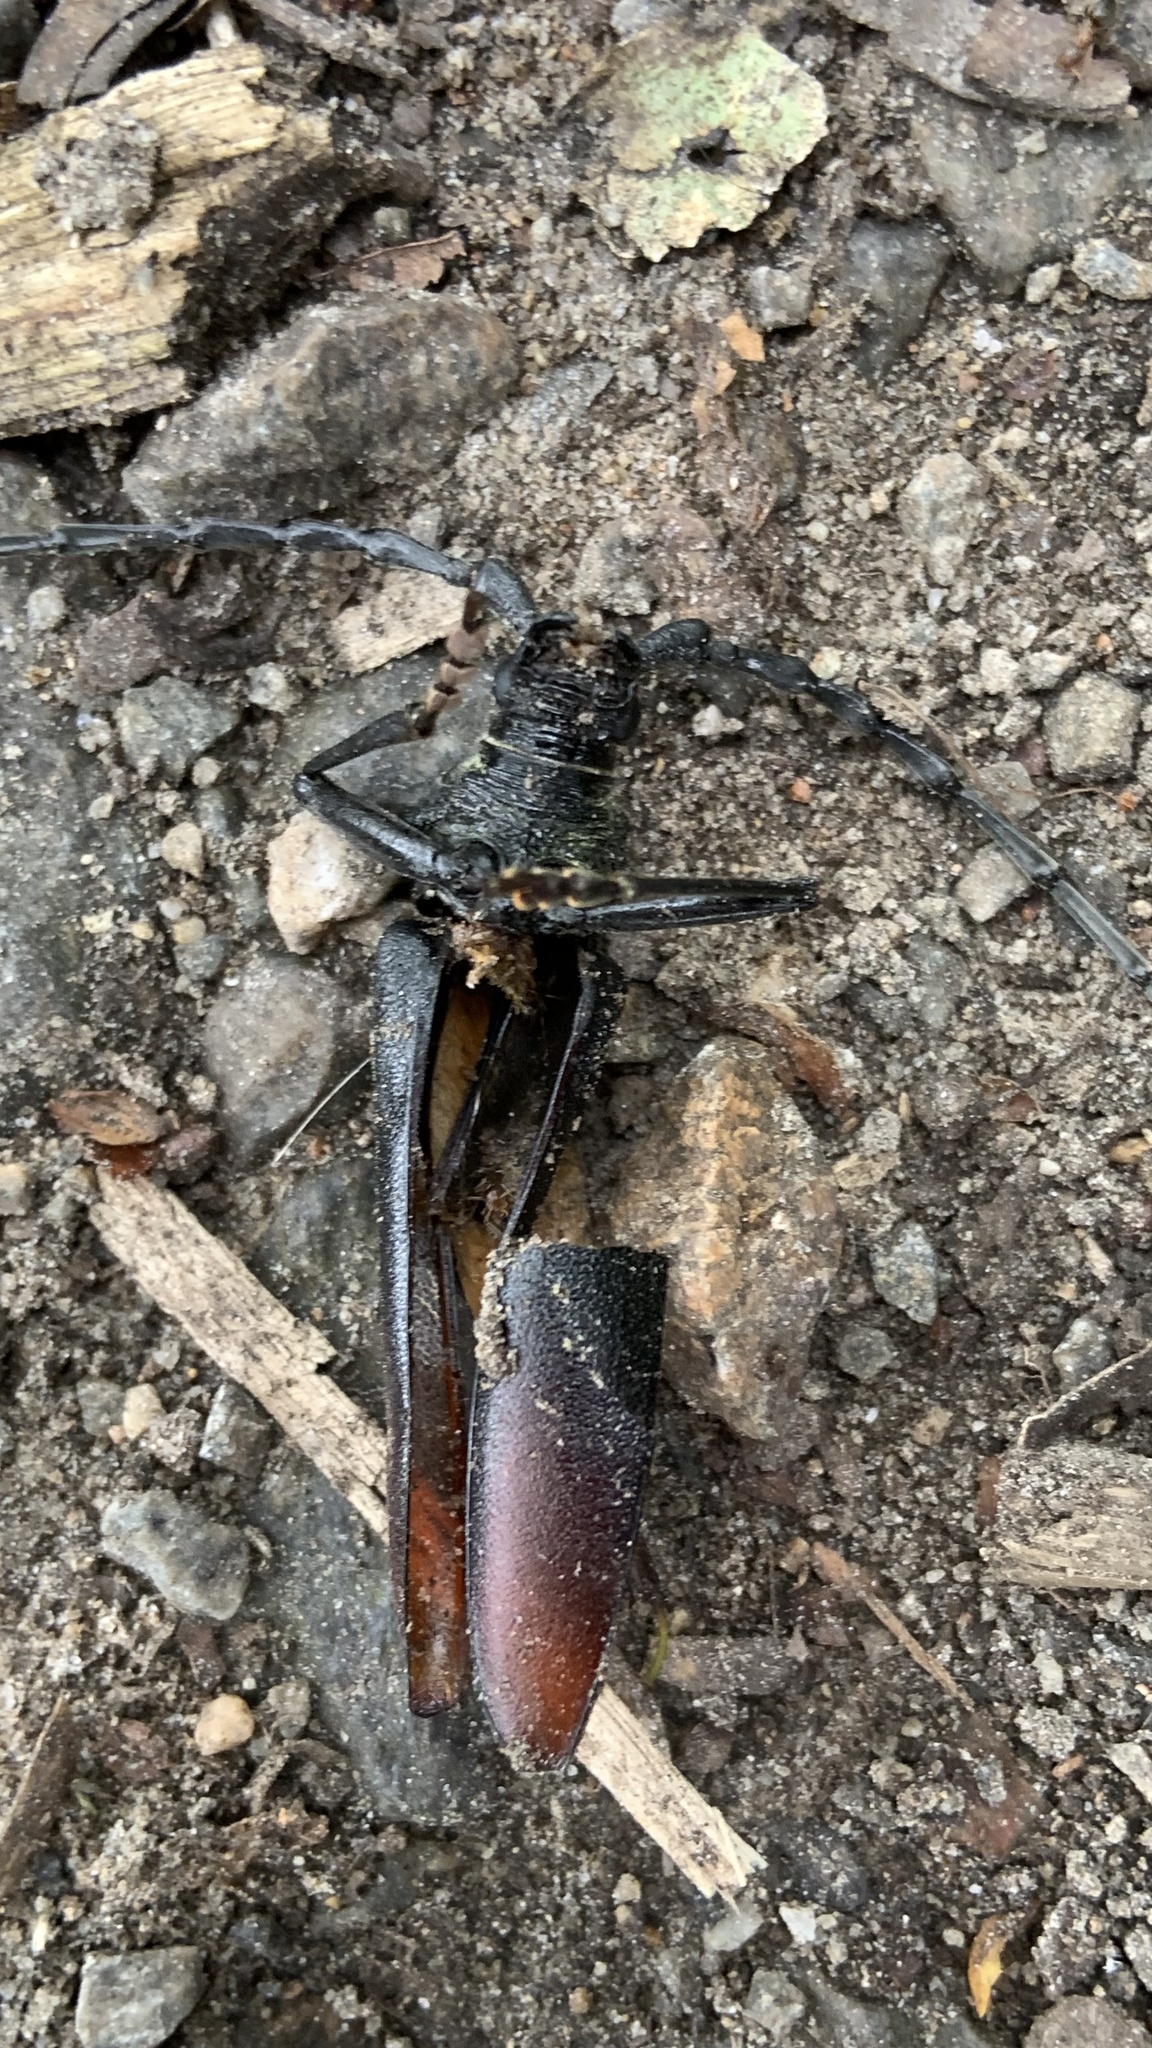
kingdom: Animalia
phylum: Arthropoda
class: Insecta
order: Coleoptera
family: Cerambycidae
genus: Cerambyx
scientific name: Cerambyx cerdo
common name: Cerambyx longicorn
